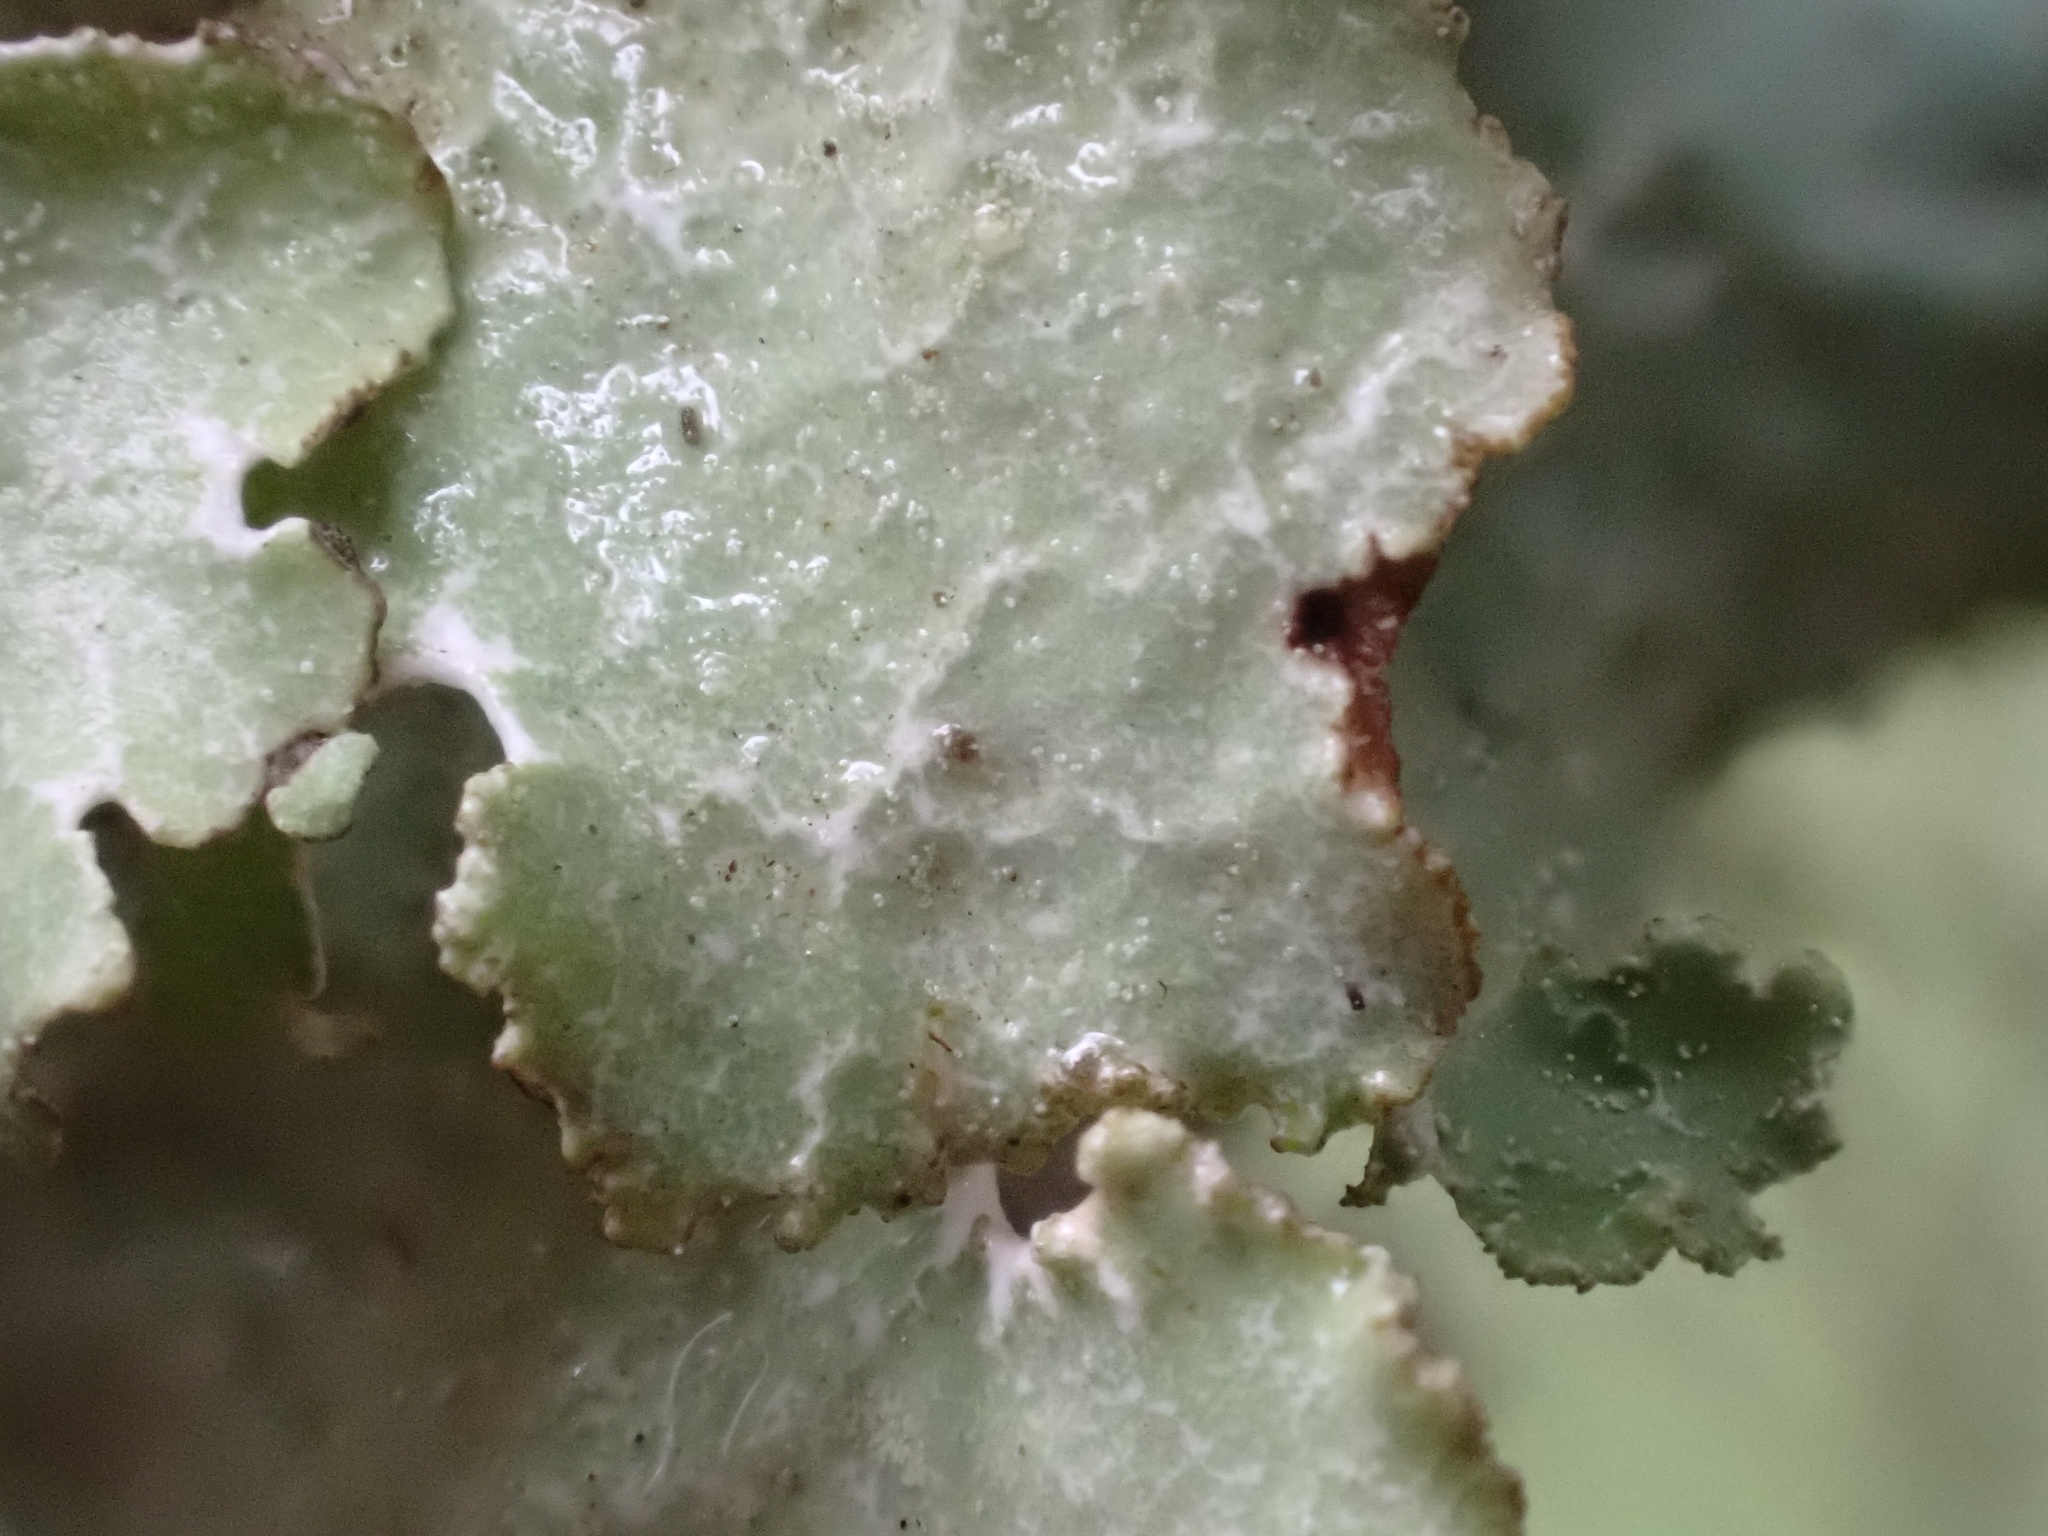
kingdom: Fungi
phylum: Ascomycota
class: Lecanoromycetes
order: Lecanorales
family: Parmeliaceae
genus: Platismatia
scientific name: Platismatia glauca
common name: Varied rag lichen
